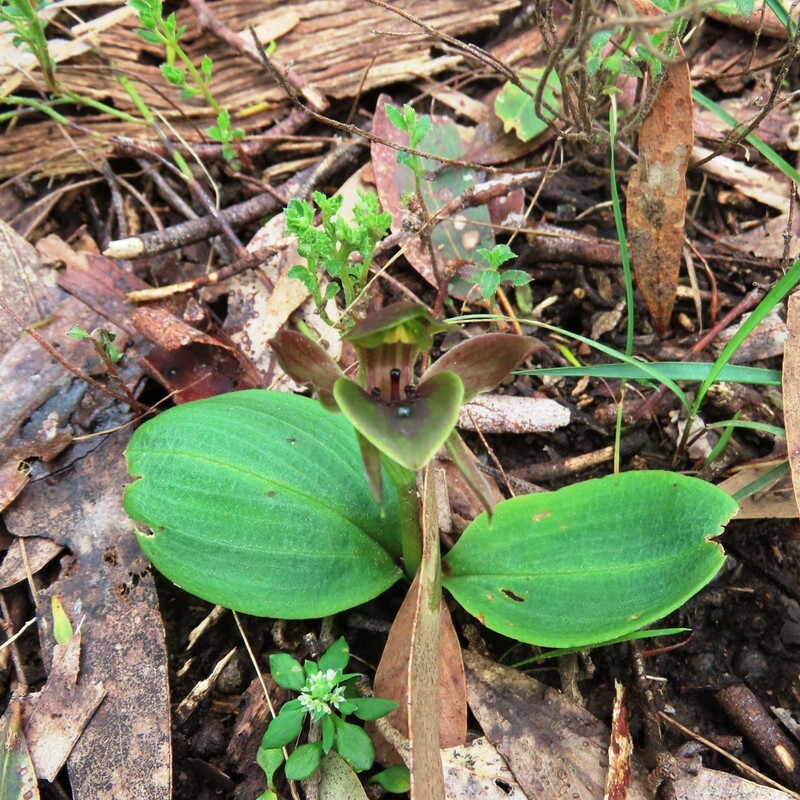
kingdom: Plantae
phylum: Tracheophyta
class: Liliopsida
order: Asparagales
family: Orchidaceae
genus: Chiloglottis
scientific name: Chiloglottis valida
